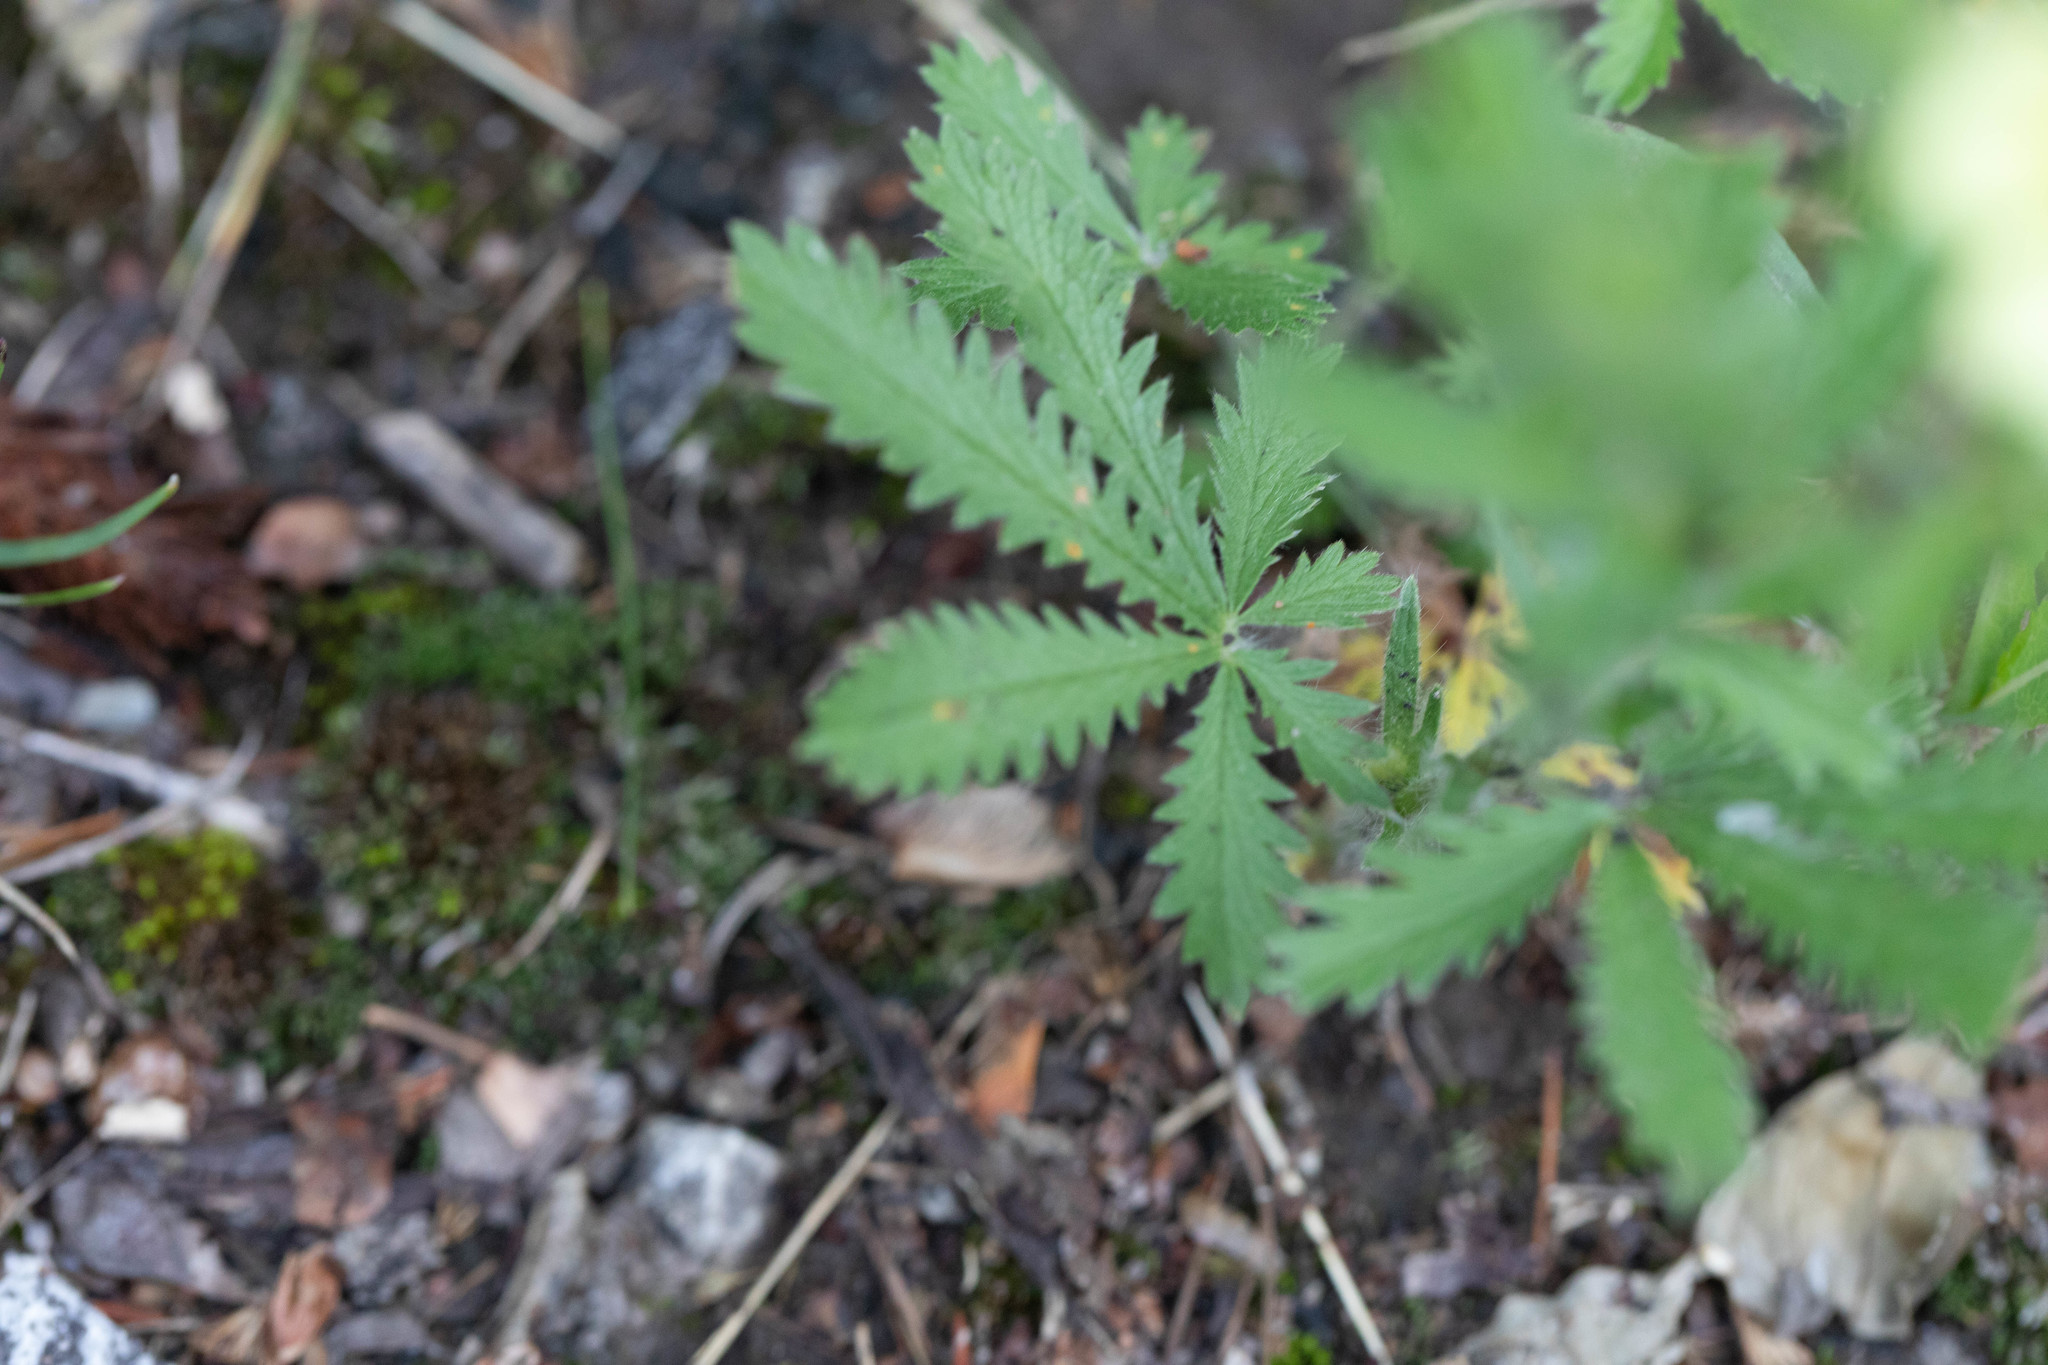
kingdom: Plantae
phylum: Tracheophyta
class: Magnoliopsida
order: Rosales
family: Rosaceae
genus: Potentilla
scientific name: Potentilla recta
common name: Sulphur cinquefoil
